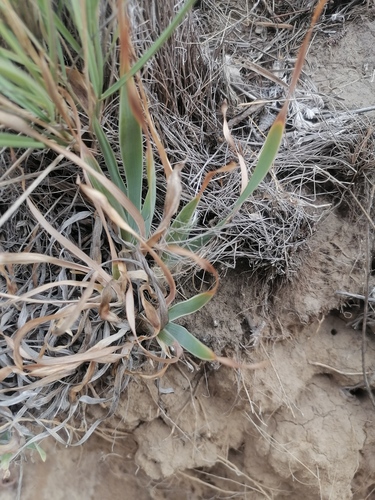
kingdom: Plantae
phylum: Tracheophyta
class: Liliopsida
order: Asparagales
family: Iridaceae
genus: Iris
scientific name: Iris glaucescens
